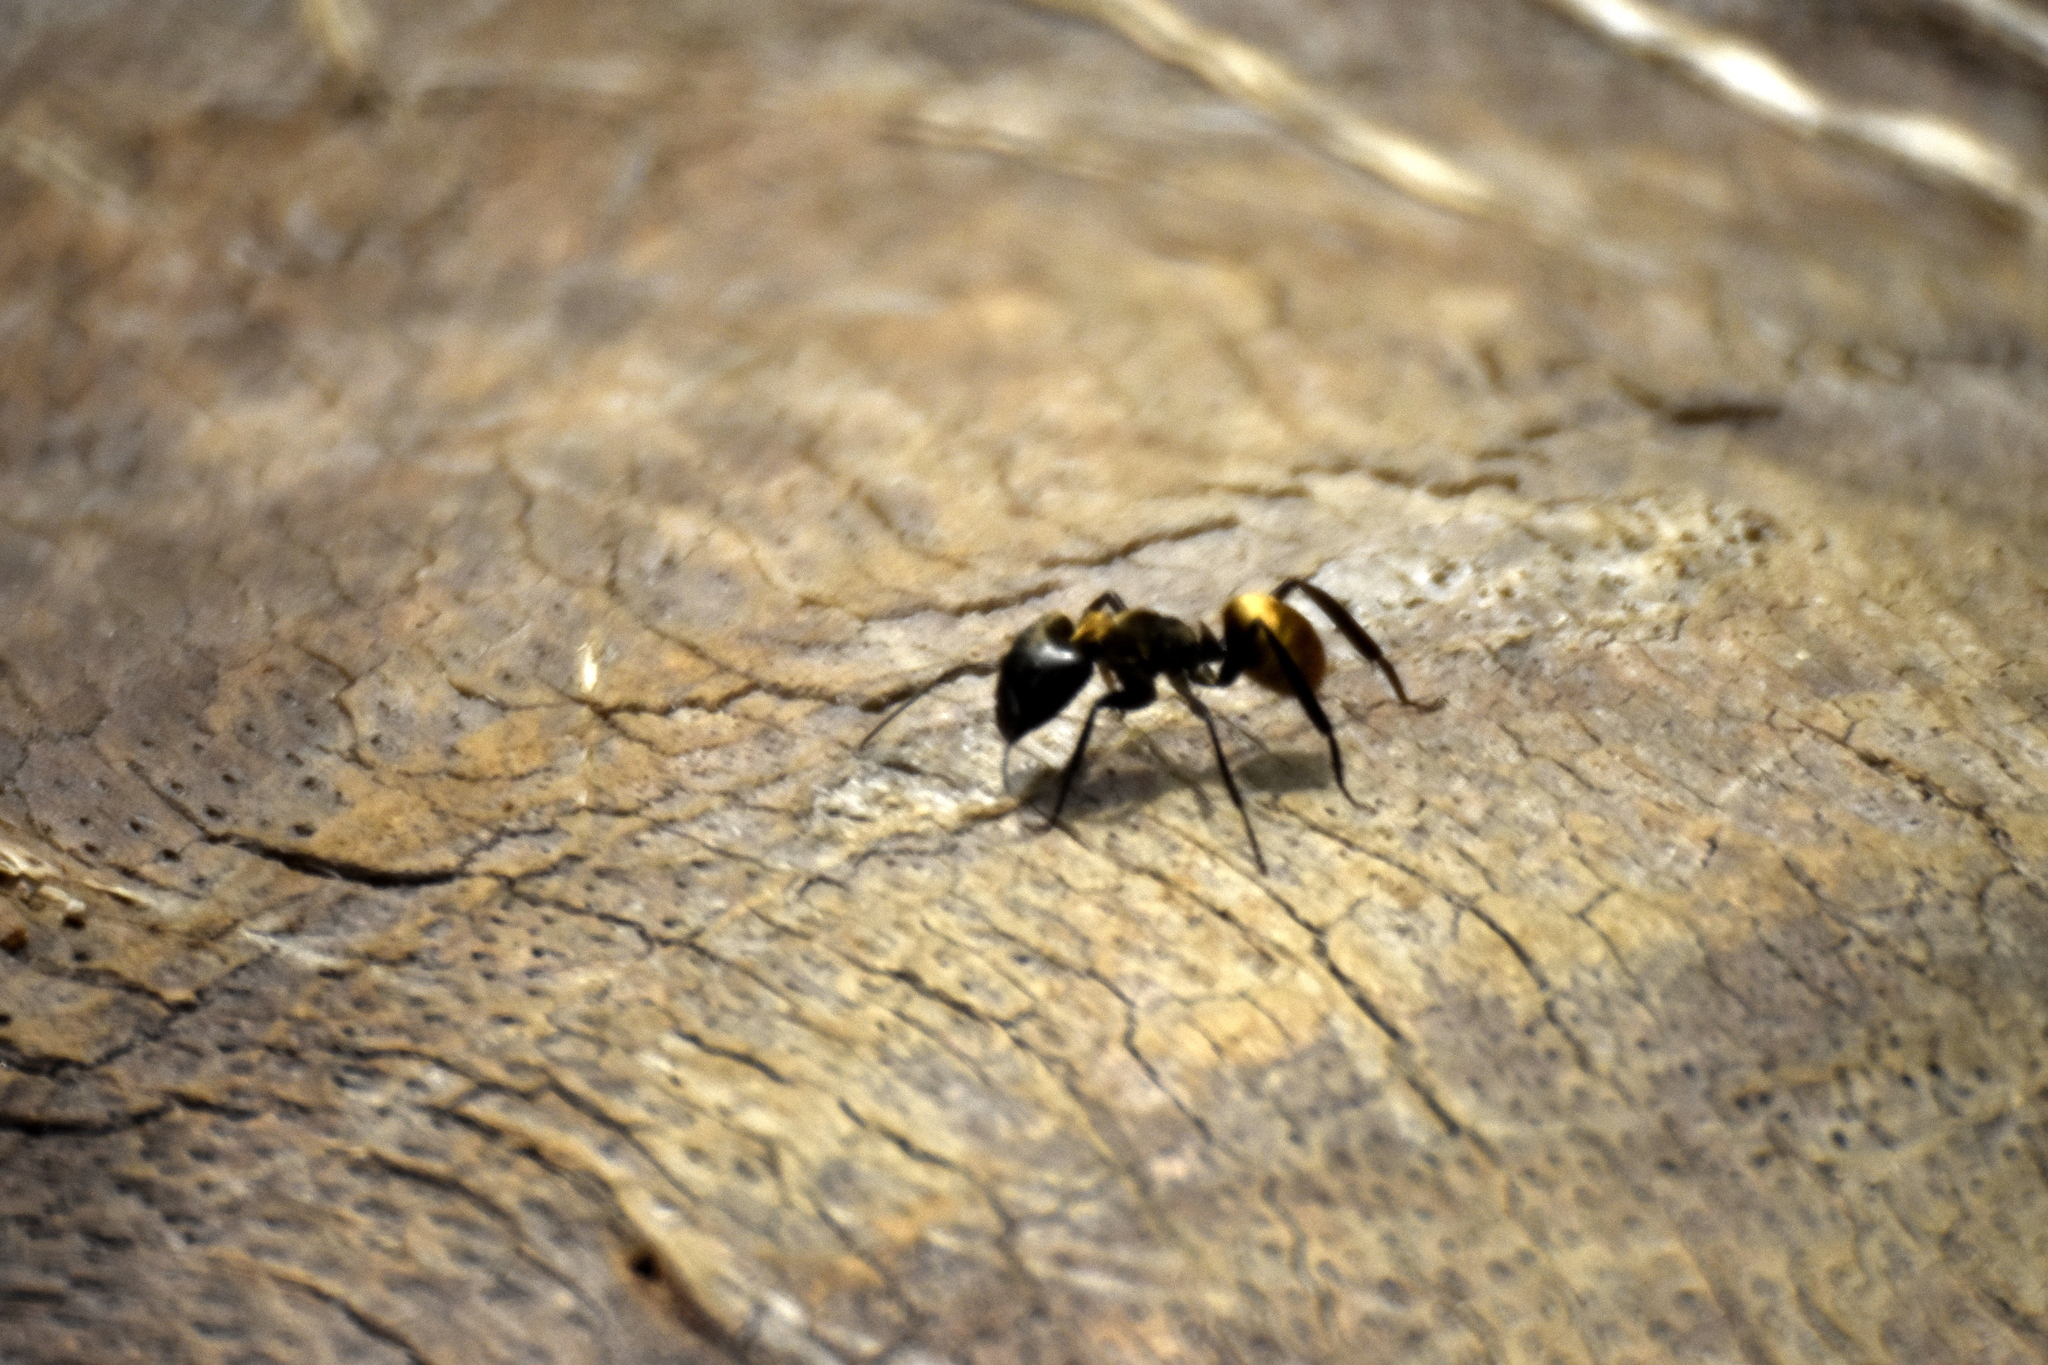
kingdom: Animalia
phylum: Arthropoda
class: Insecta
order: Hymenoptera
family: Formicidae
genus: Camponotus
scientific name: Camponotus sericeiventris
